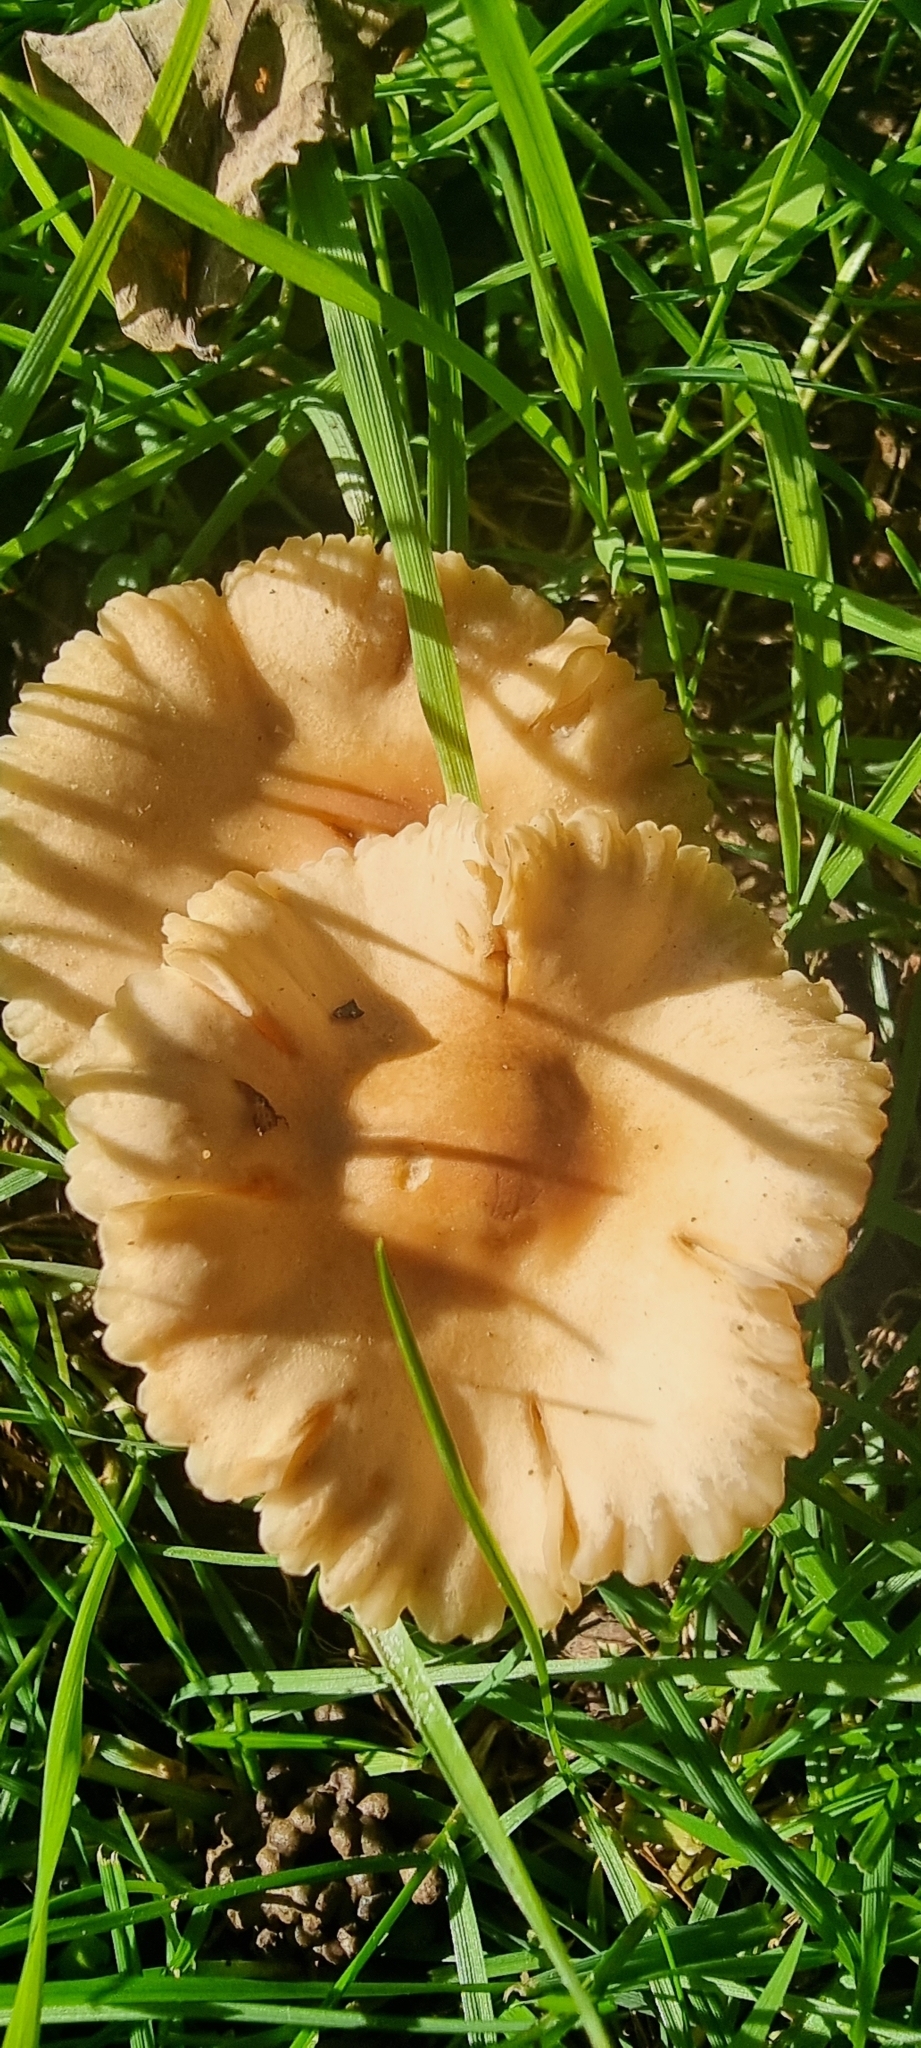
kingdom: Fungi
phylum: Basidiomycota
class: Agaricomycetes
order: Agaricales
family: Marasmiaceae
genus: Marasmius
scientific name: Marasmius oreades
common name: Fairy ring champignon
